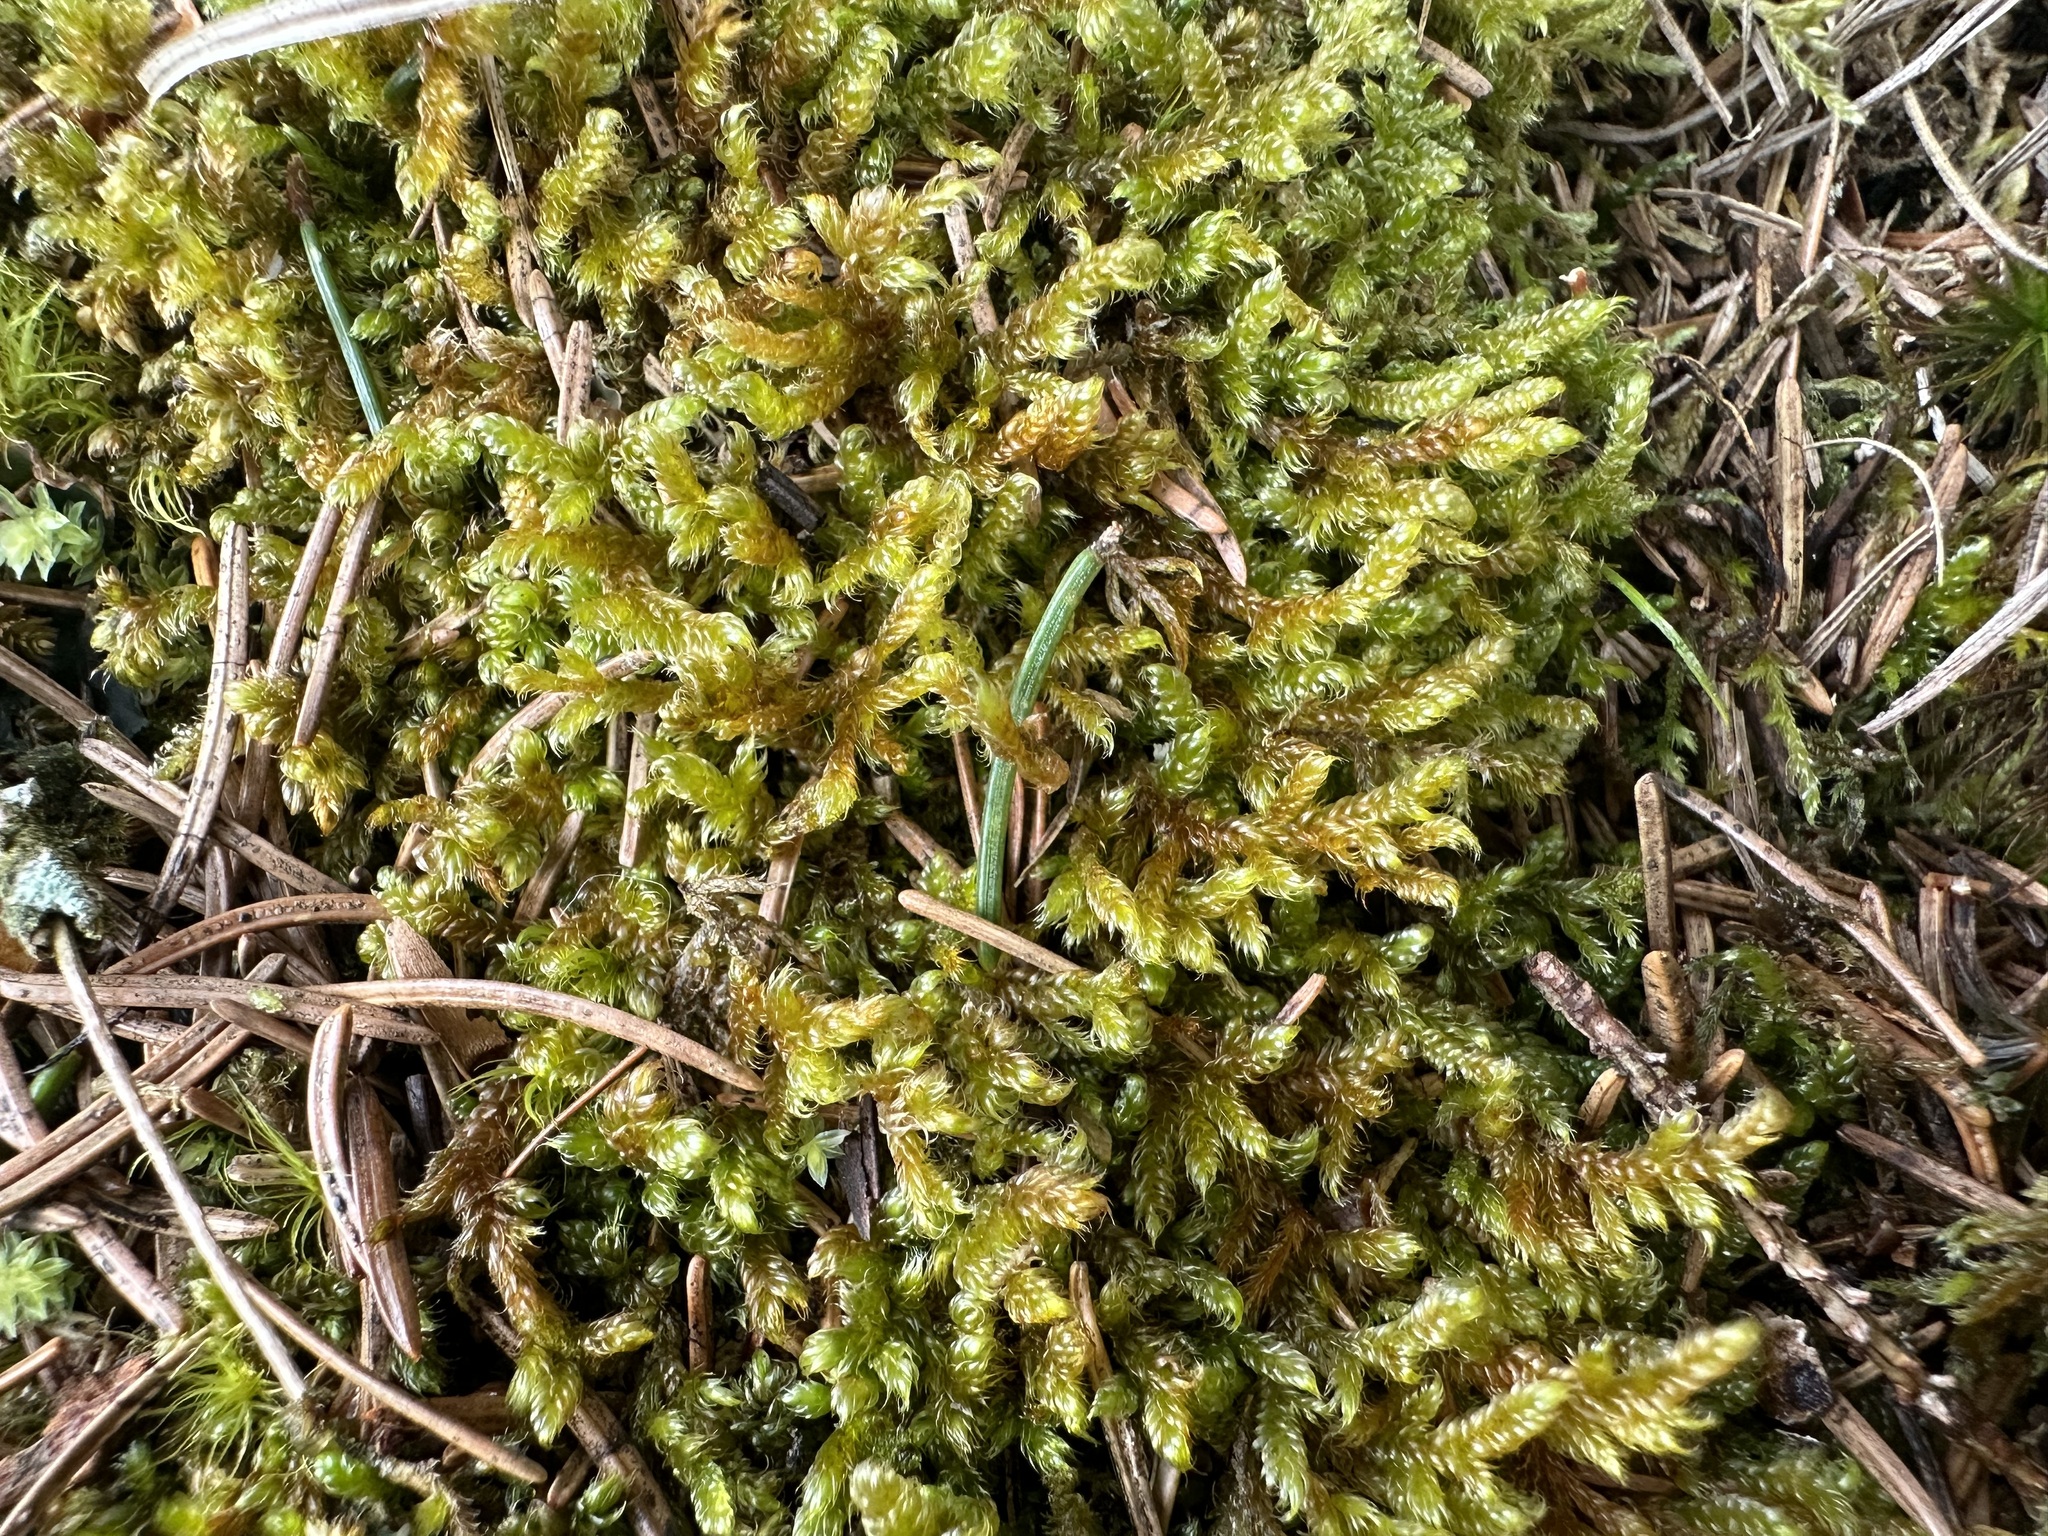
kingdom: Plantae
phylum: Bryophyta
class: Bryopsida
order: Hypnales
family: Hypnaceae
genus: Hypnum
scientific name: Hypnum cupressiforme
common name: Cypress-leaved plait-moss
